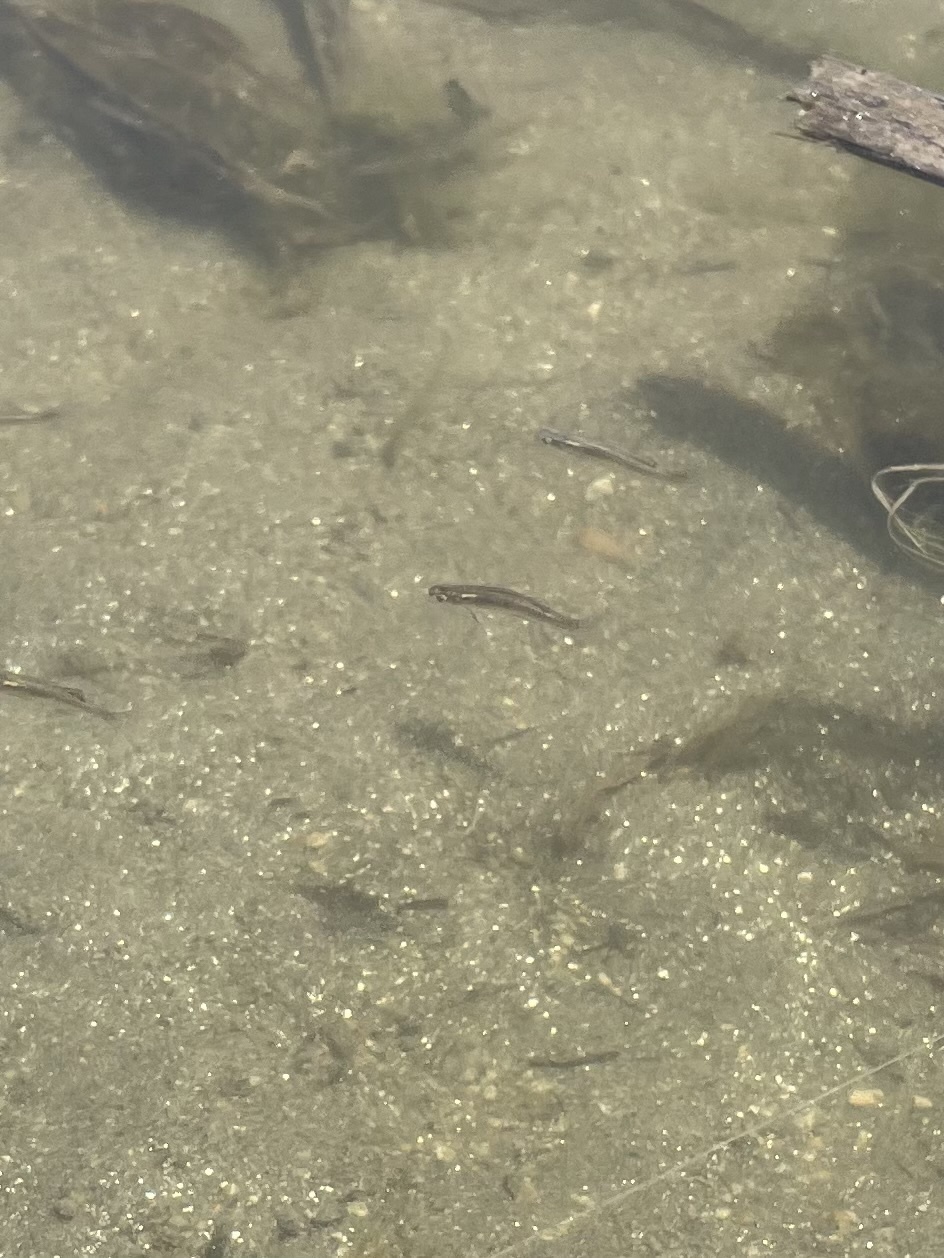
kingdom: Animalia
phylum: Chordata
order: Cyprinodontiformes
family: Poeciliidae
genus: Gambusia
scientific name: Gambusia affinis
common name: Mosquitofish
